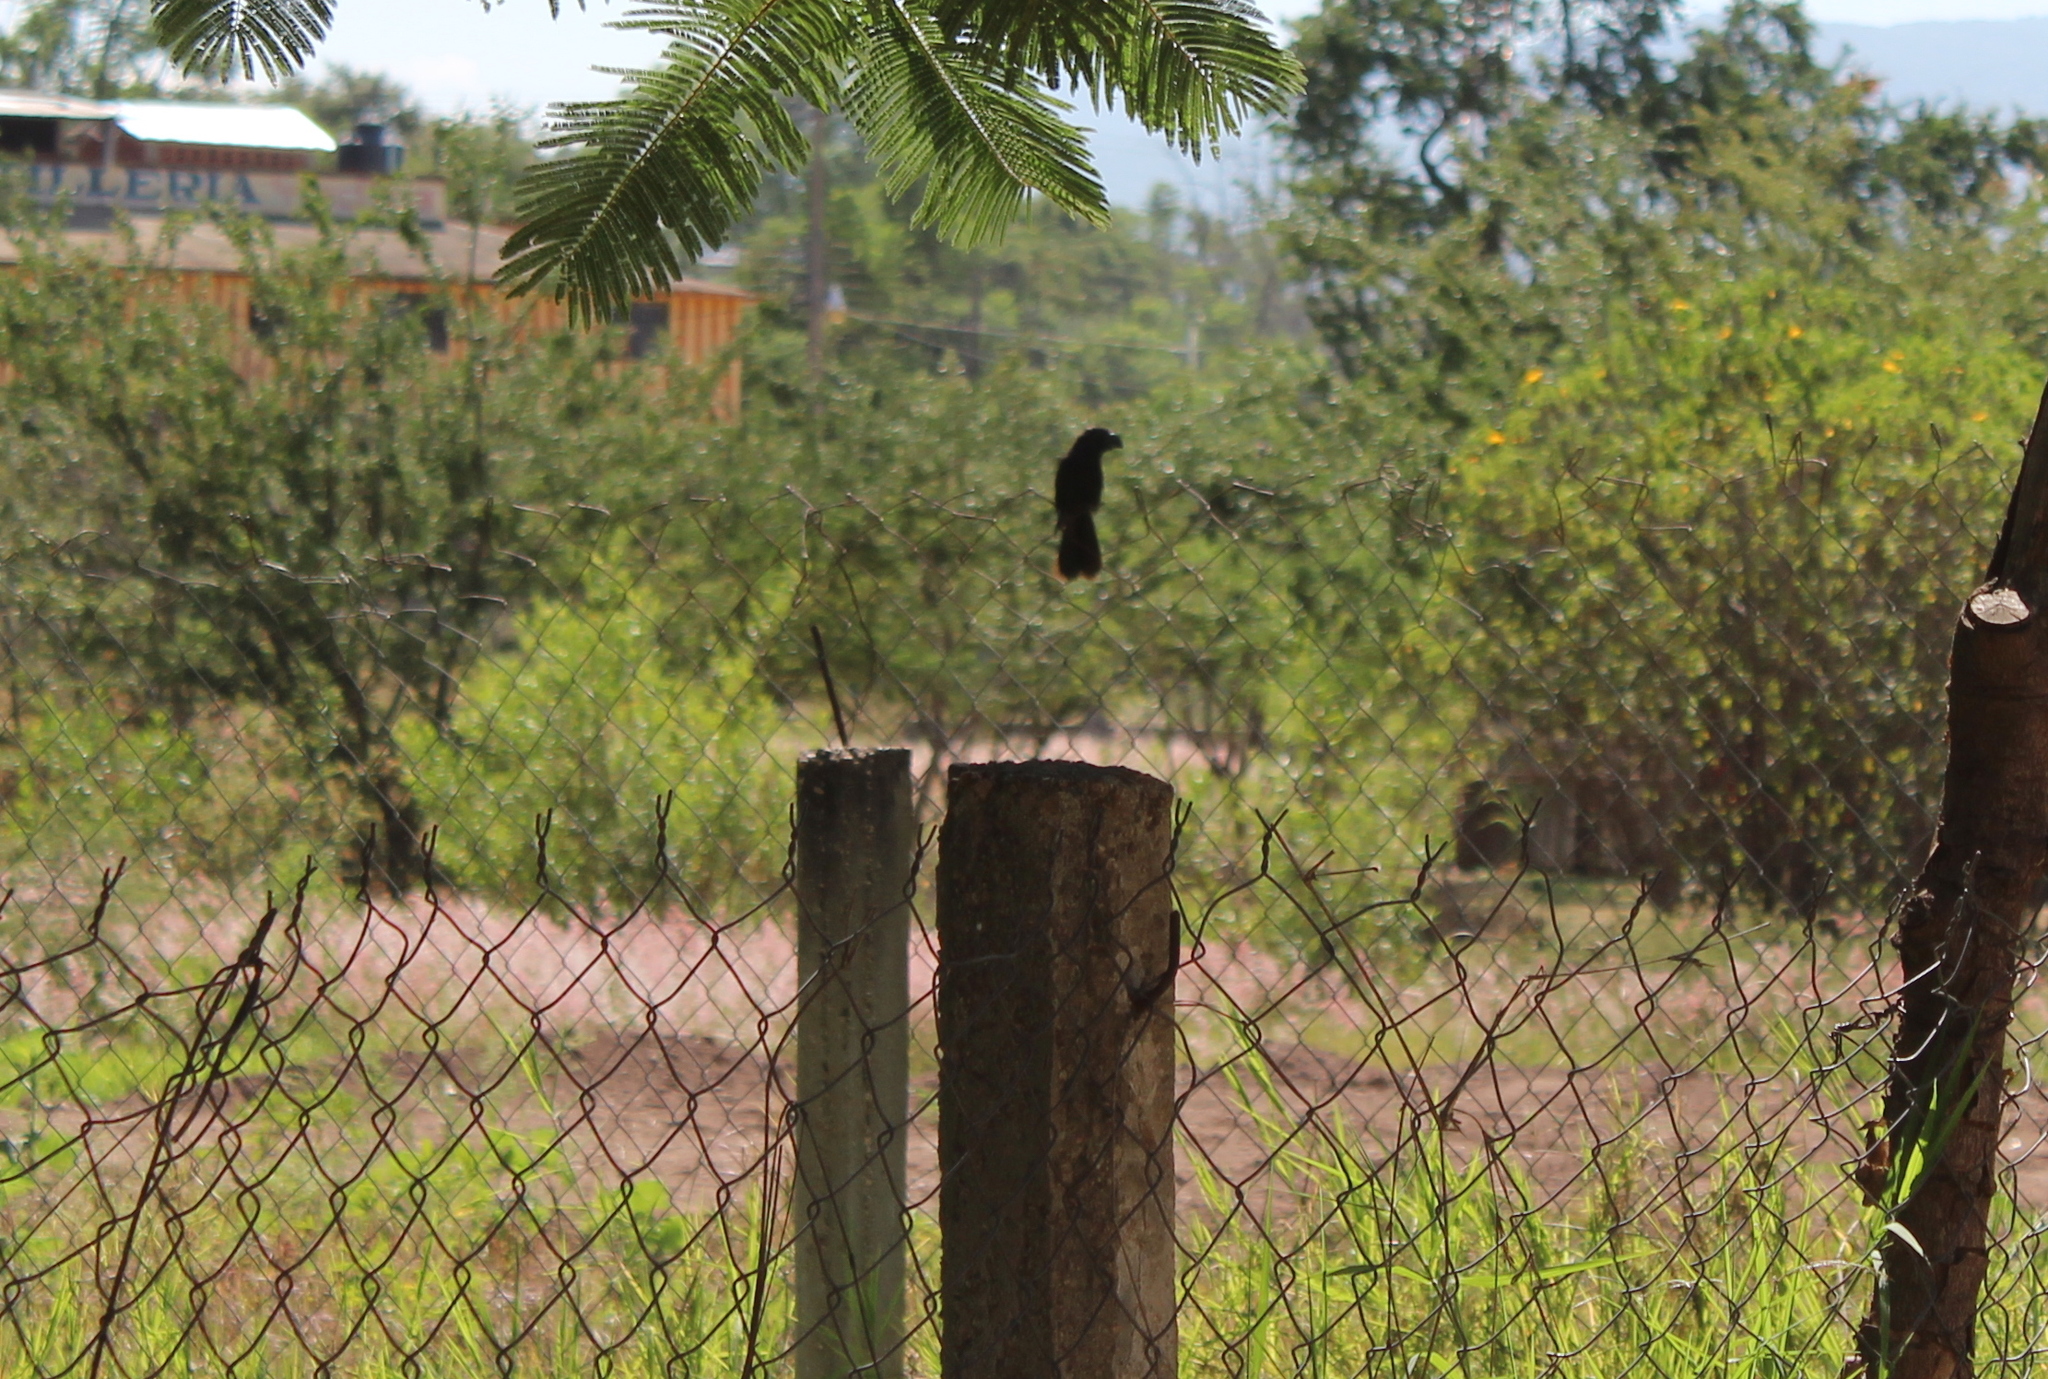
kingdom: Animalia
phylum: Chordata
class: Aves
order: Cuculiformes
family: Cuculidae
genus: Crotophaga
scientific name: Crotophaga sulcirostris
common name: Groove-billed ani
